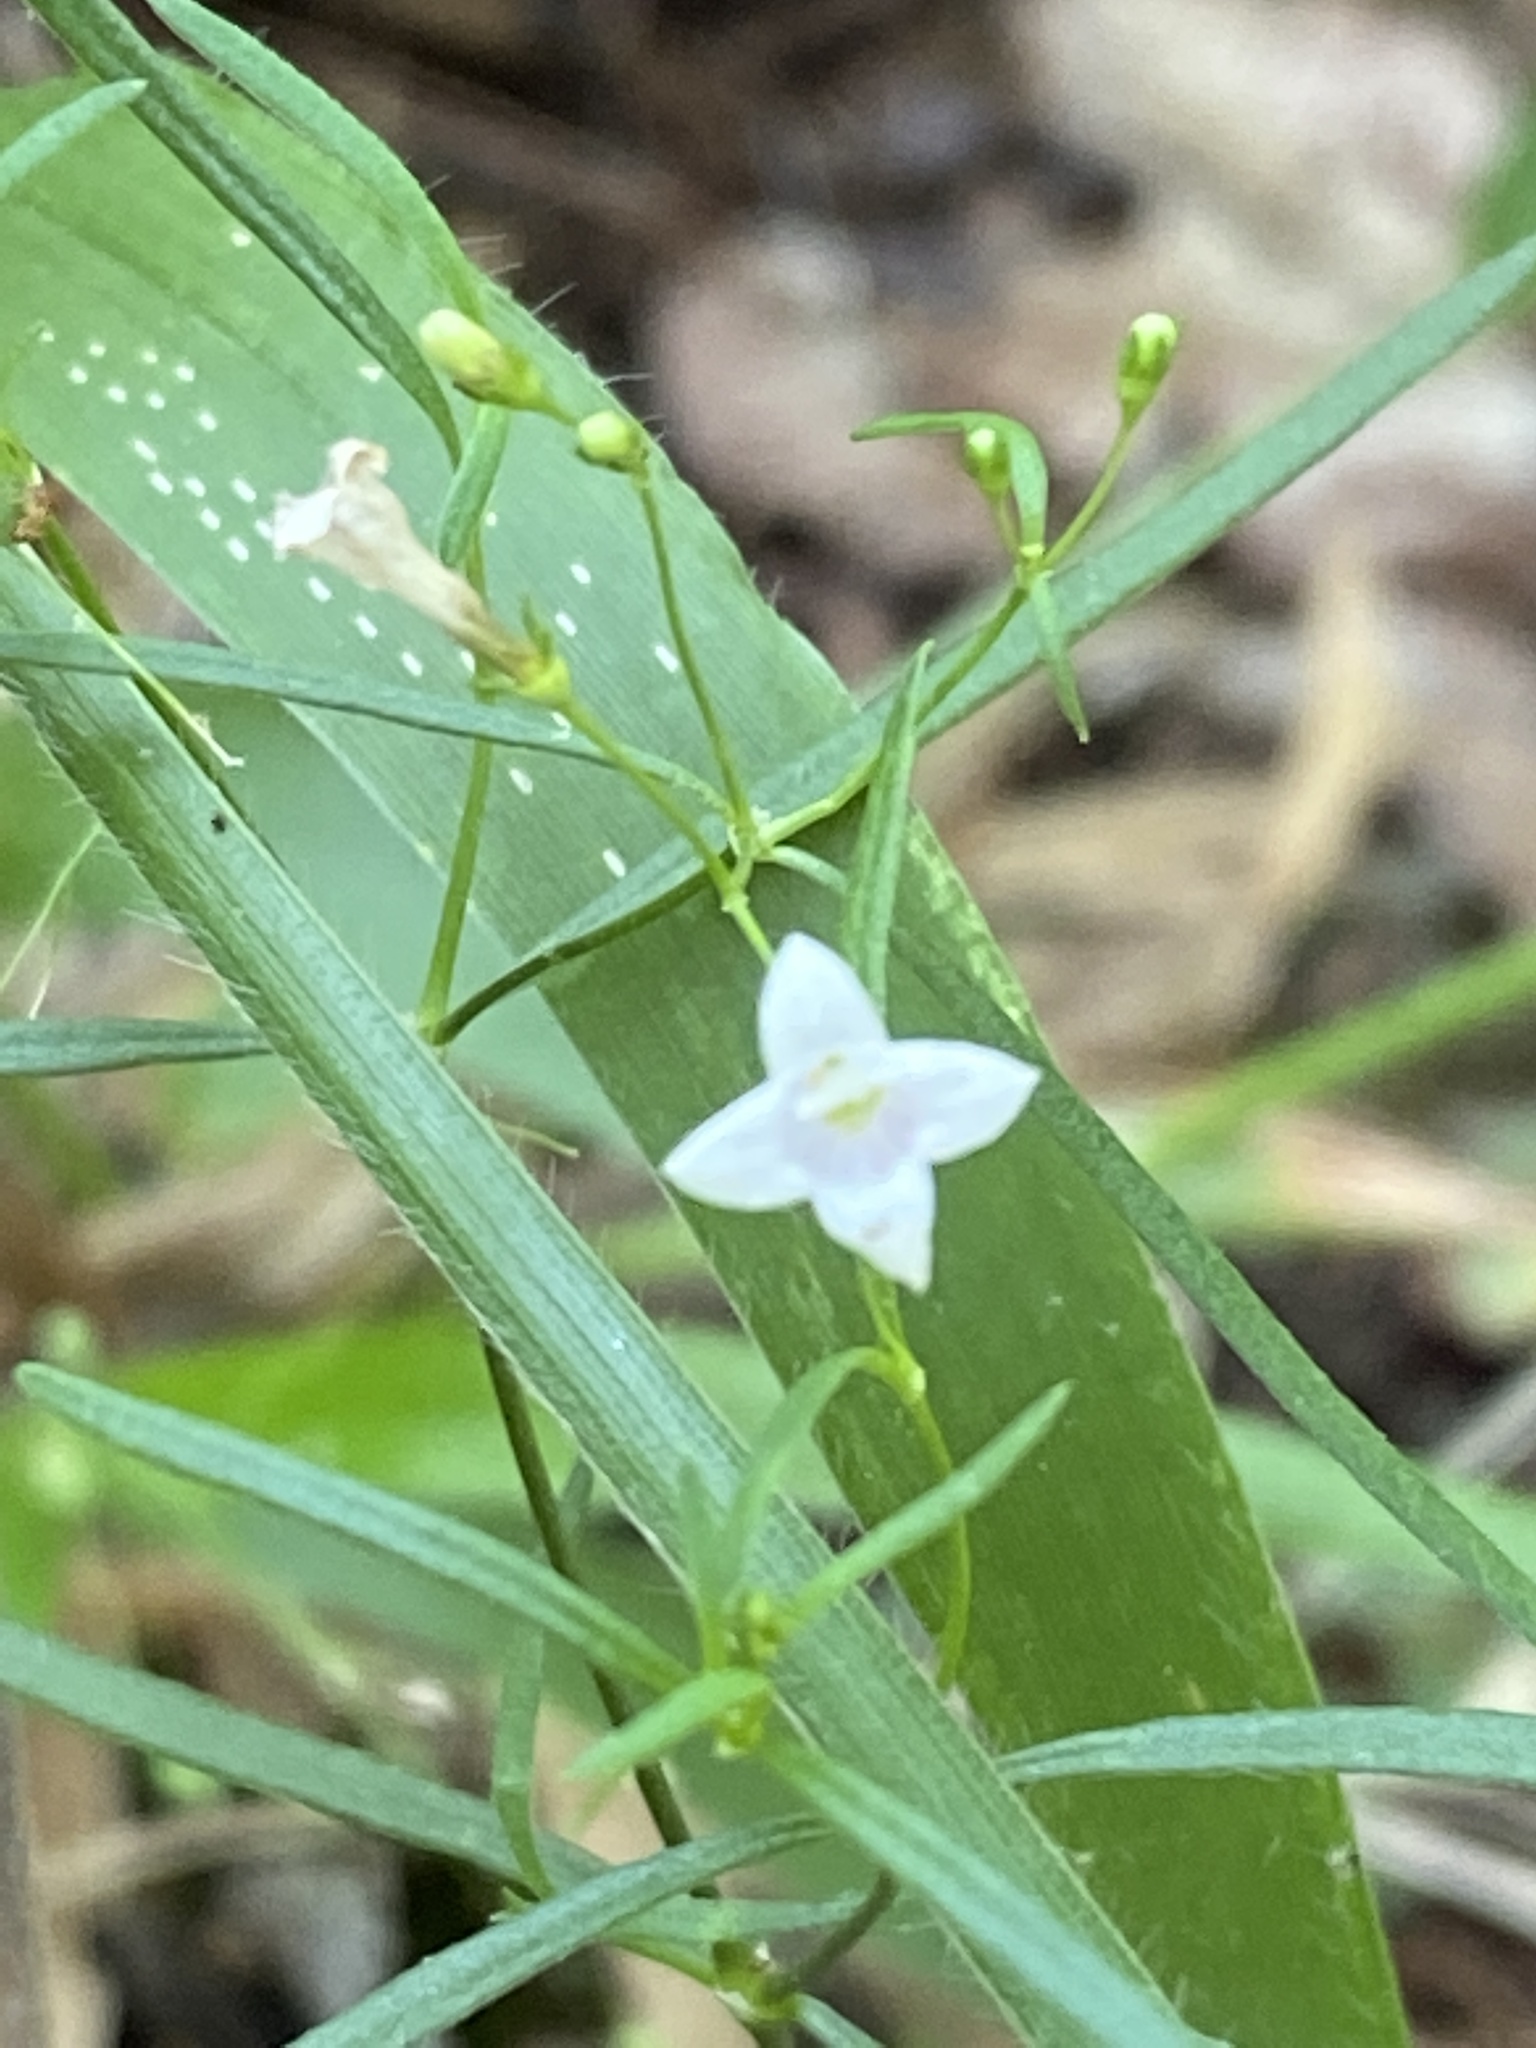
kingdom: Plantae
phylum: Tracheophyta
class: Magnoliopsida
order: Gentianales
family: Rubiaceae
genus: Houstonia
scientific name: Houstonia longifolia
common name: Long-leaved bluets
